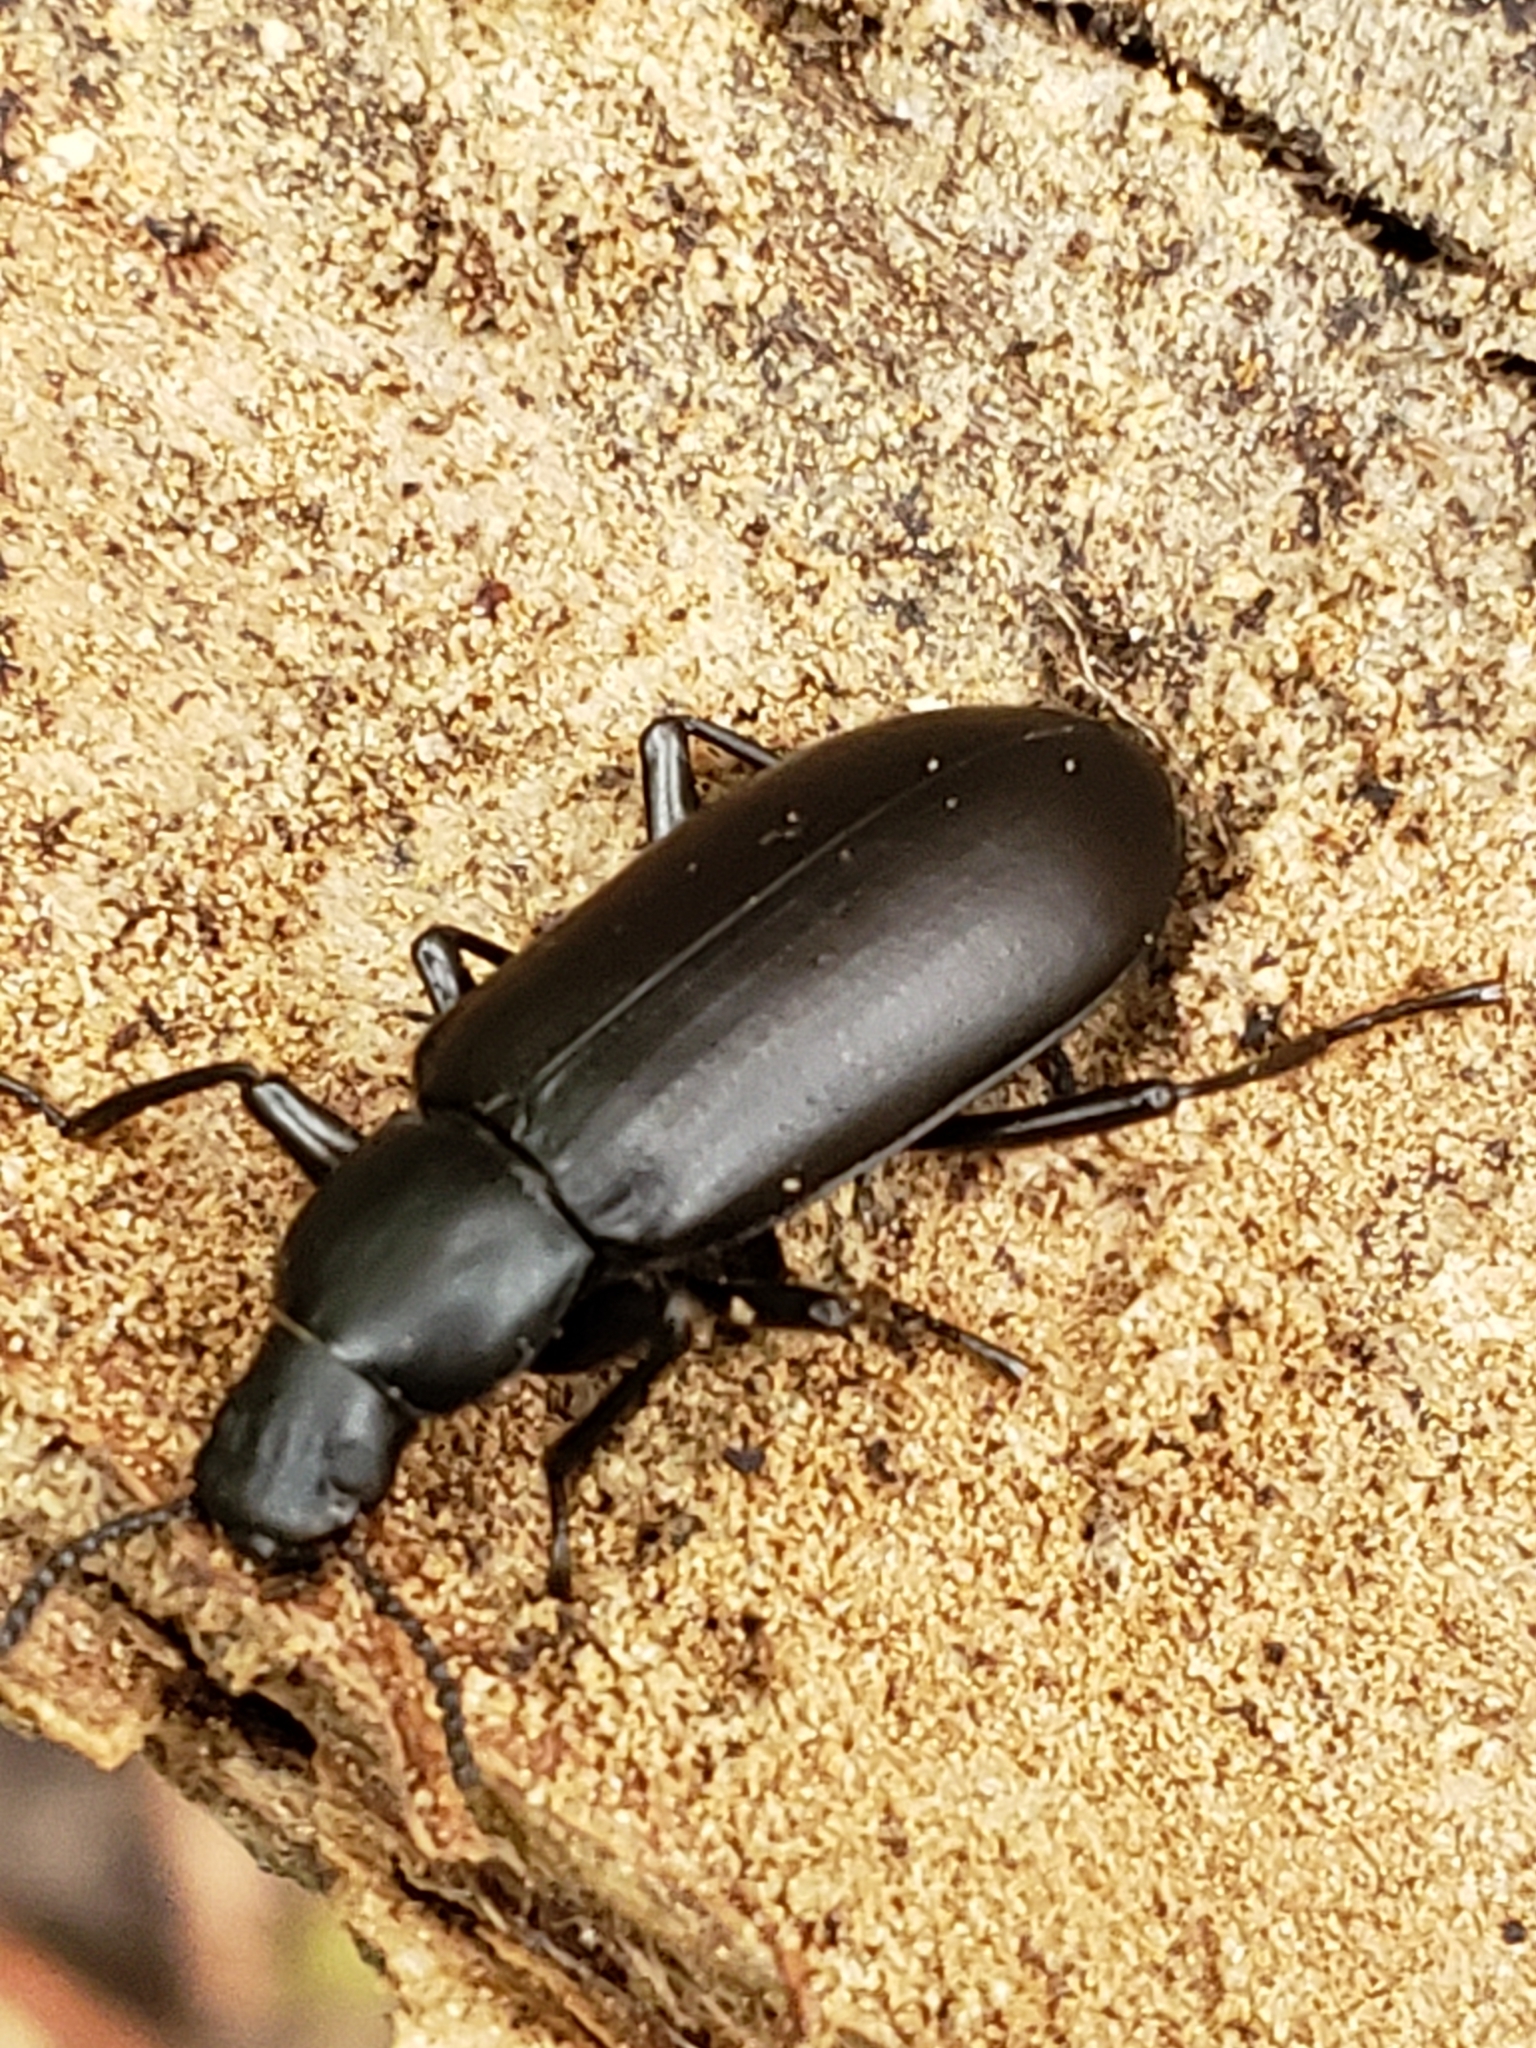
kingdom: Animalia
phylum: Arthropoda
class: Insecta
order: Coleoptera
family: Tenebrionidae
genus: Alobates
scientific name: Alobates pensylvanicus
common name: False mealworm beetle
